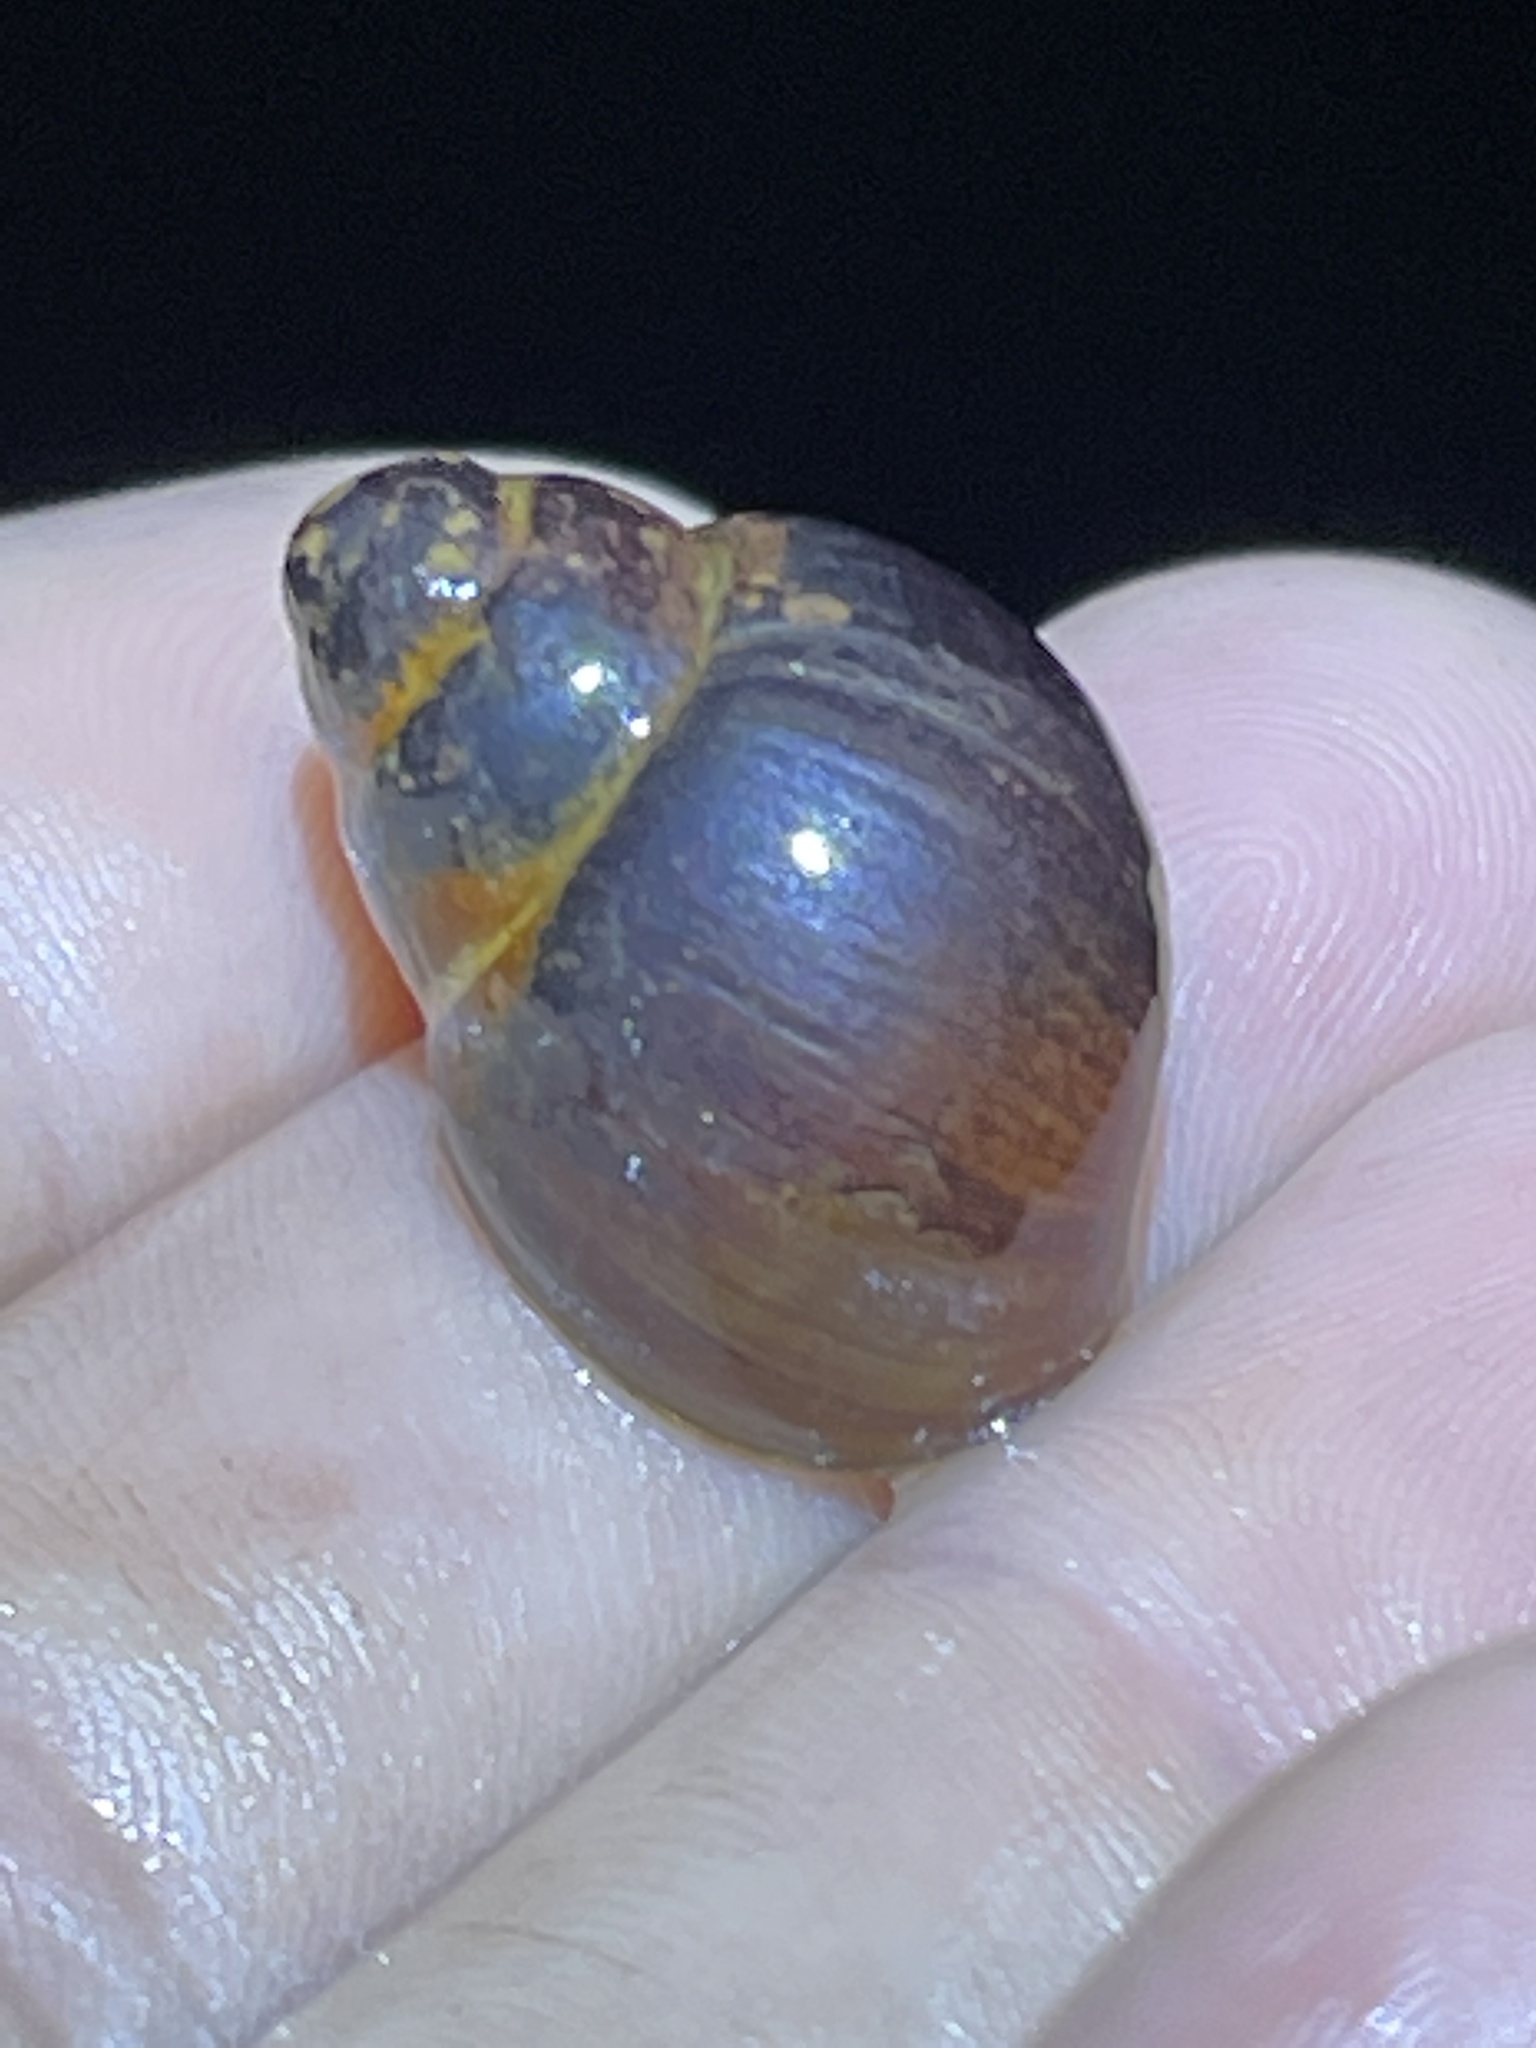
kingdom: Animalia
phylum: Mollusca
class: Gastropoda
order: Architaenioglossa
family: Viviparidae
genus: Campeloma
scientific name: Campeloma decisum
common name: Pointed campeloma
